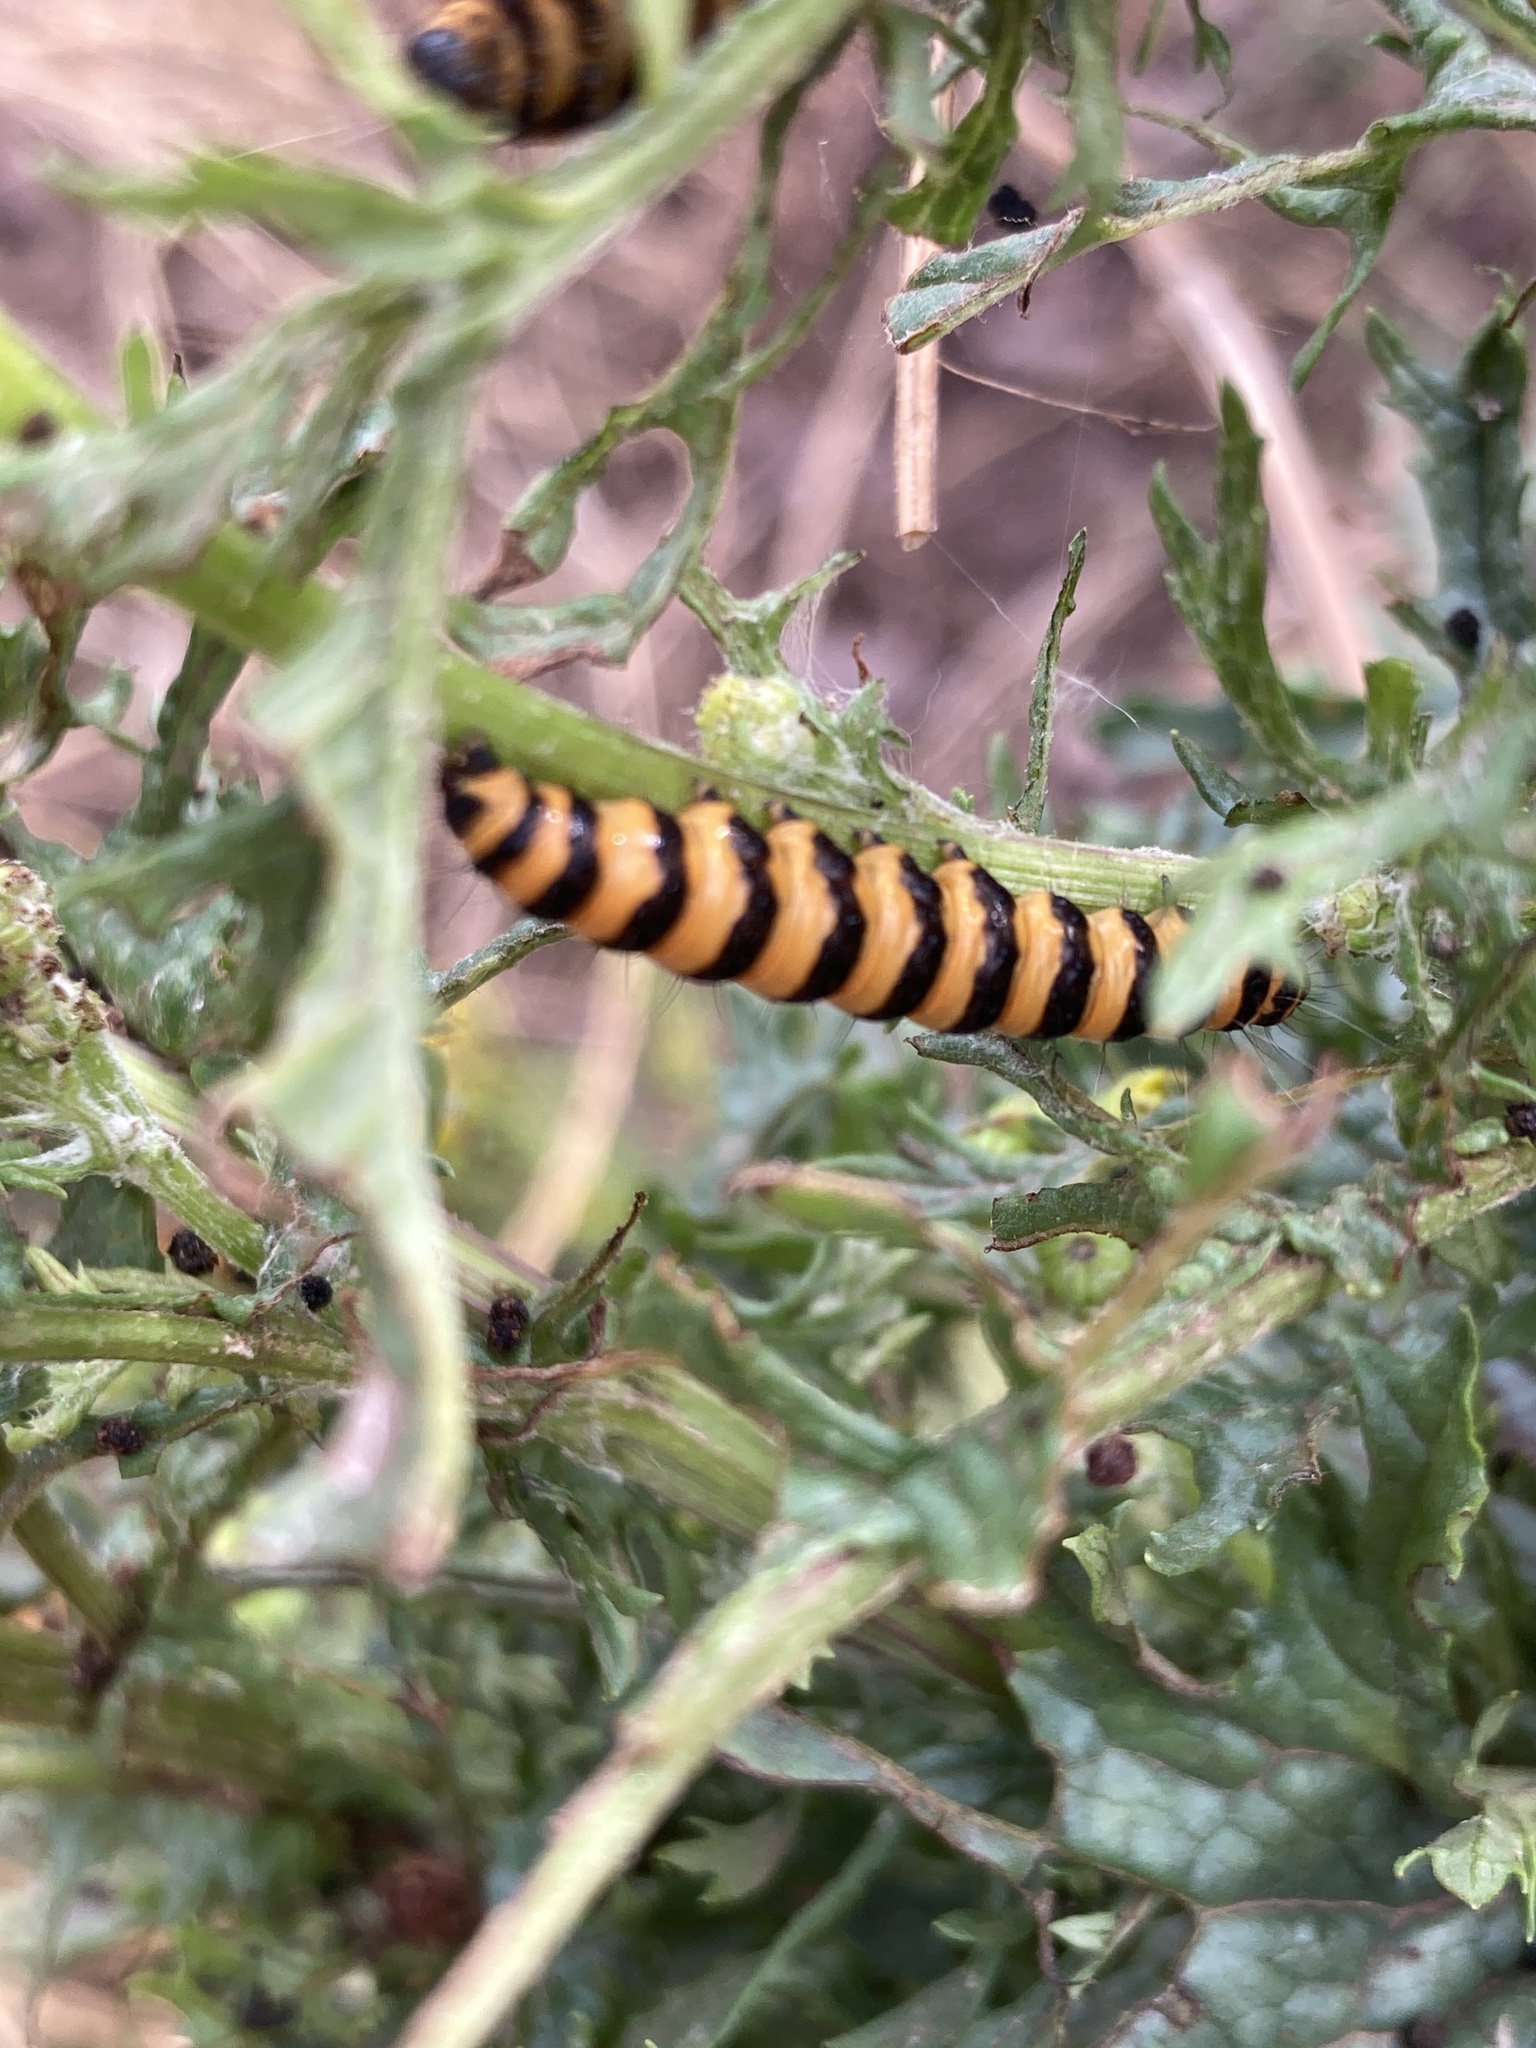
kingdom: Animalia
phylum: Arthropoda
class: Insecta
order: Lepidoptera
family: Erebidae
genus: Tyria
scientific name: Tyria jacobaeae
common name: Cinnabar
